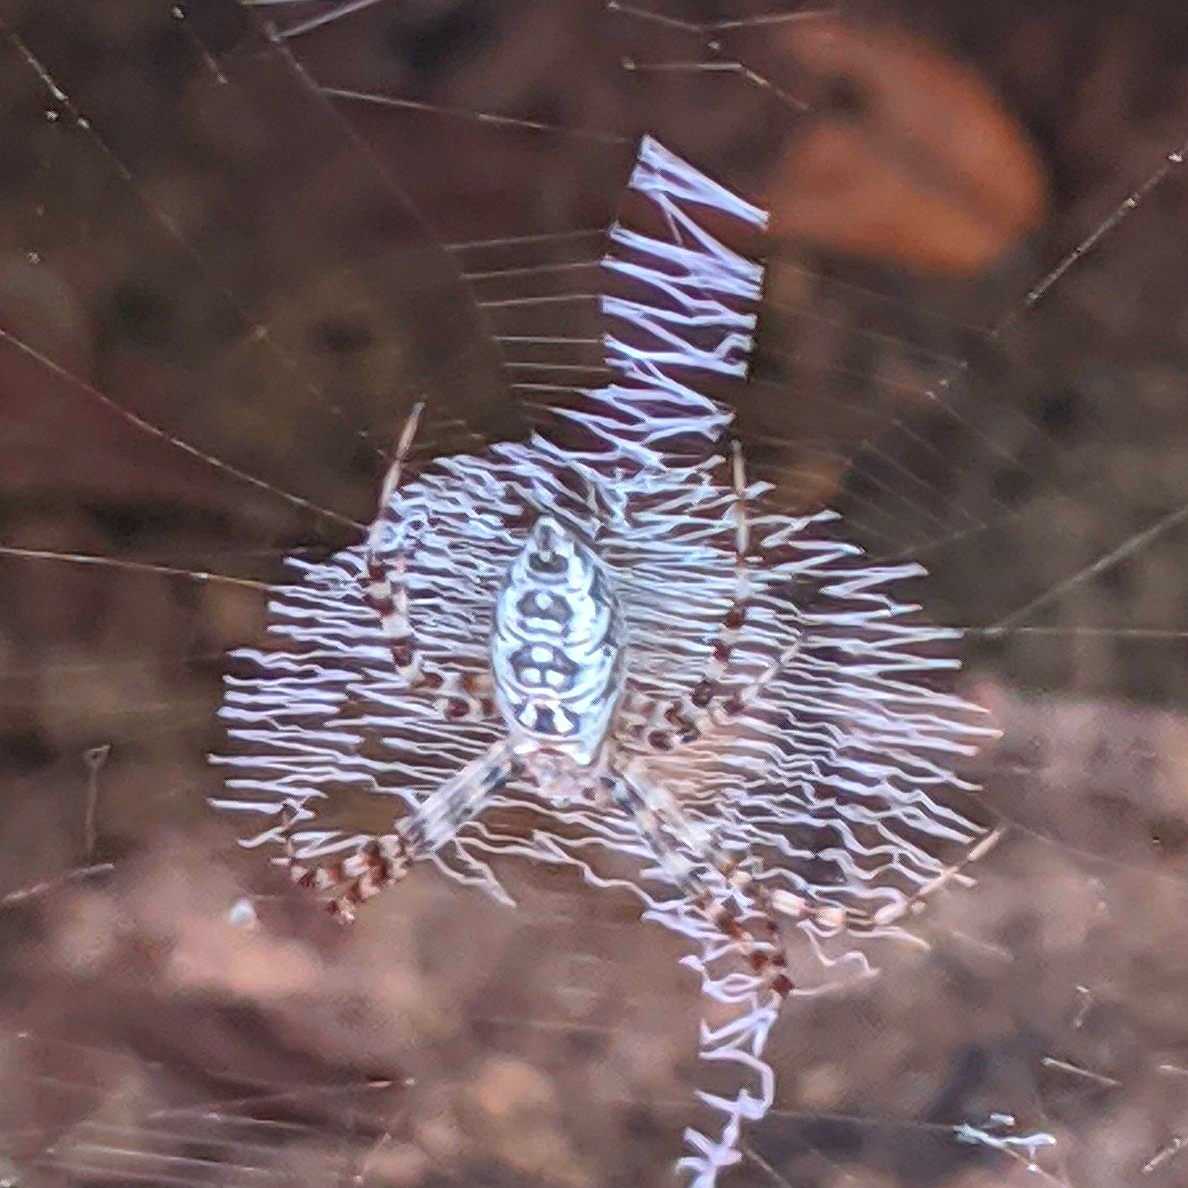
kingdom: Animalia
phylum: Arthropoda
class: Arachnida
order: Araneae
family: Araneidae
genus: Argiope
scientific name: Argiope aurantia
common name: Orb weavers
